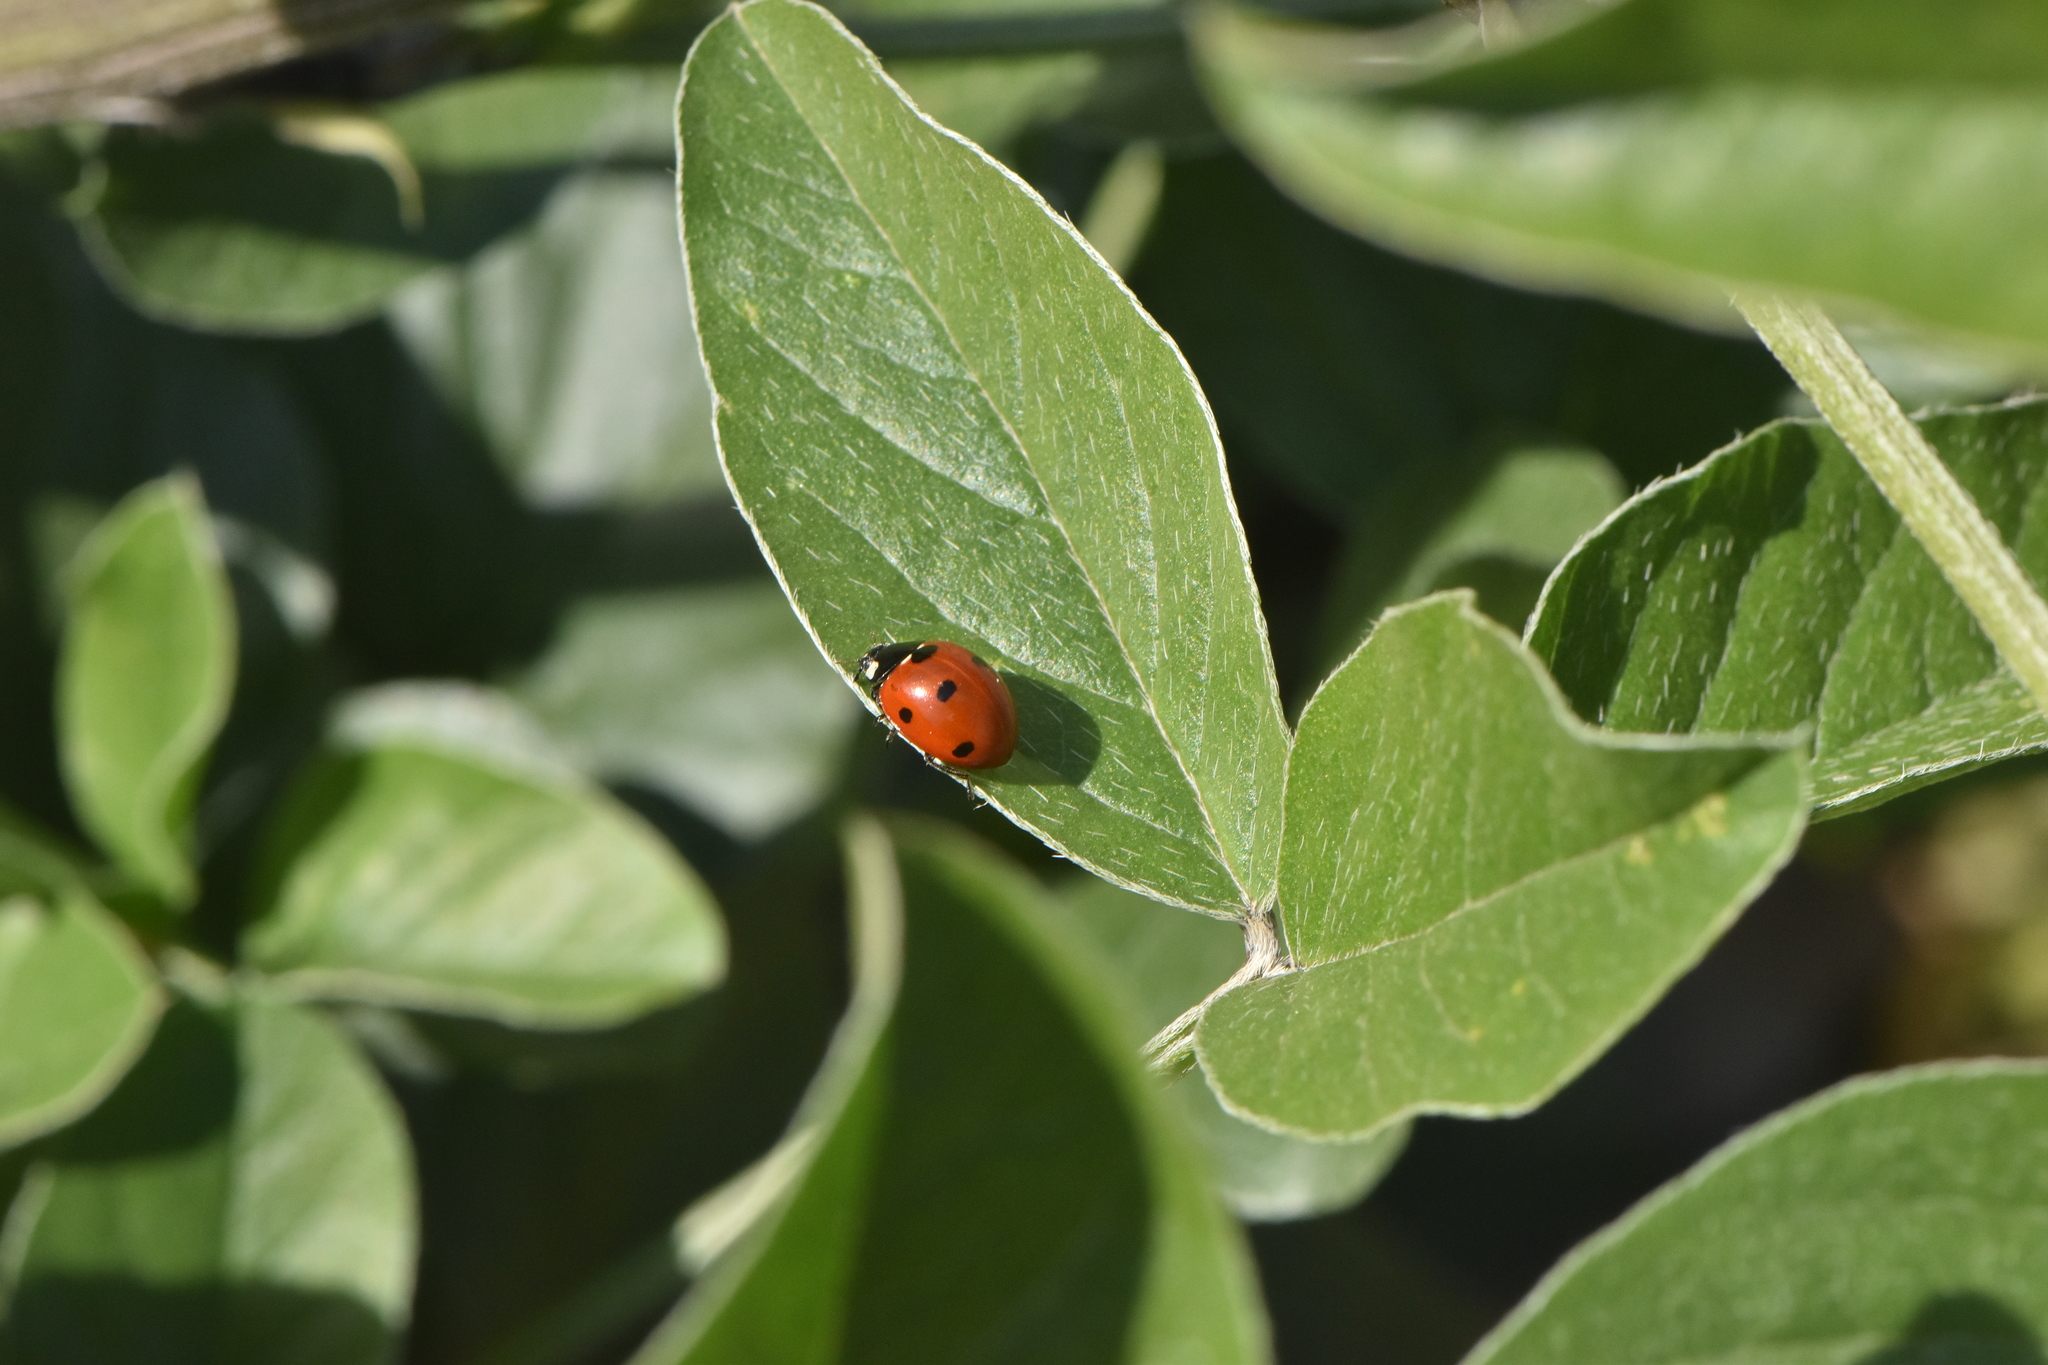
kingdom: Animalia
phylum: Arthropoda
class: Insecta
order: Coleoptera
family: Coccinellidae
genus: Coccinella
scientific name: Coccinella septempunctata
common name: Sevenspotted lady beetle
